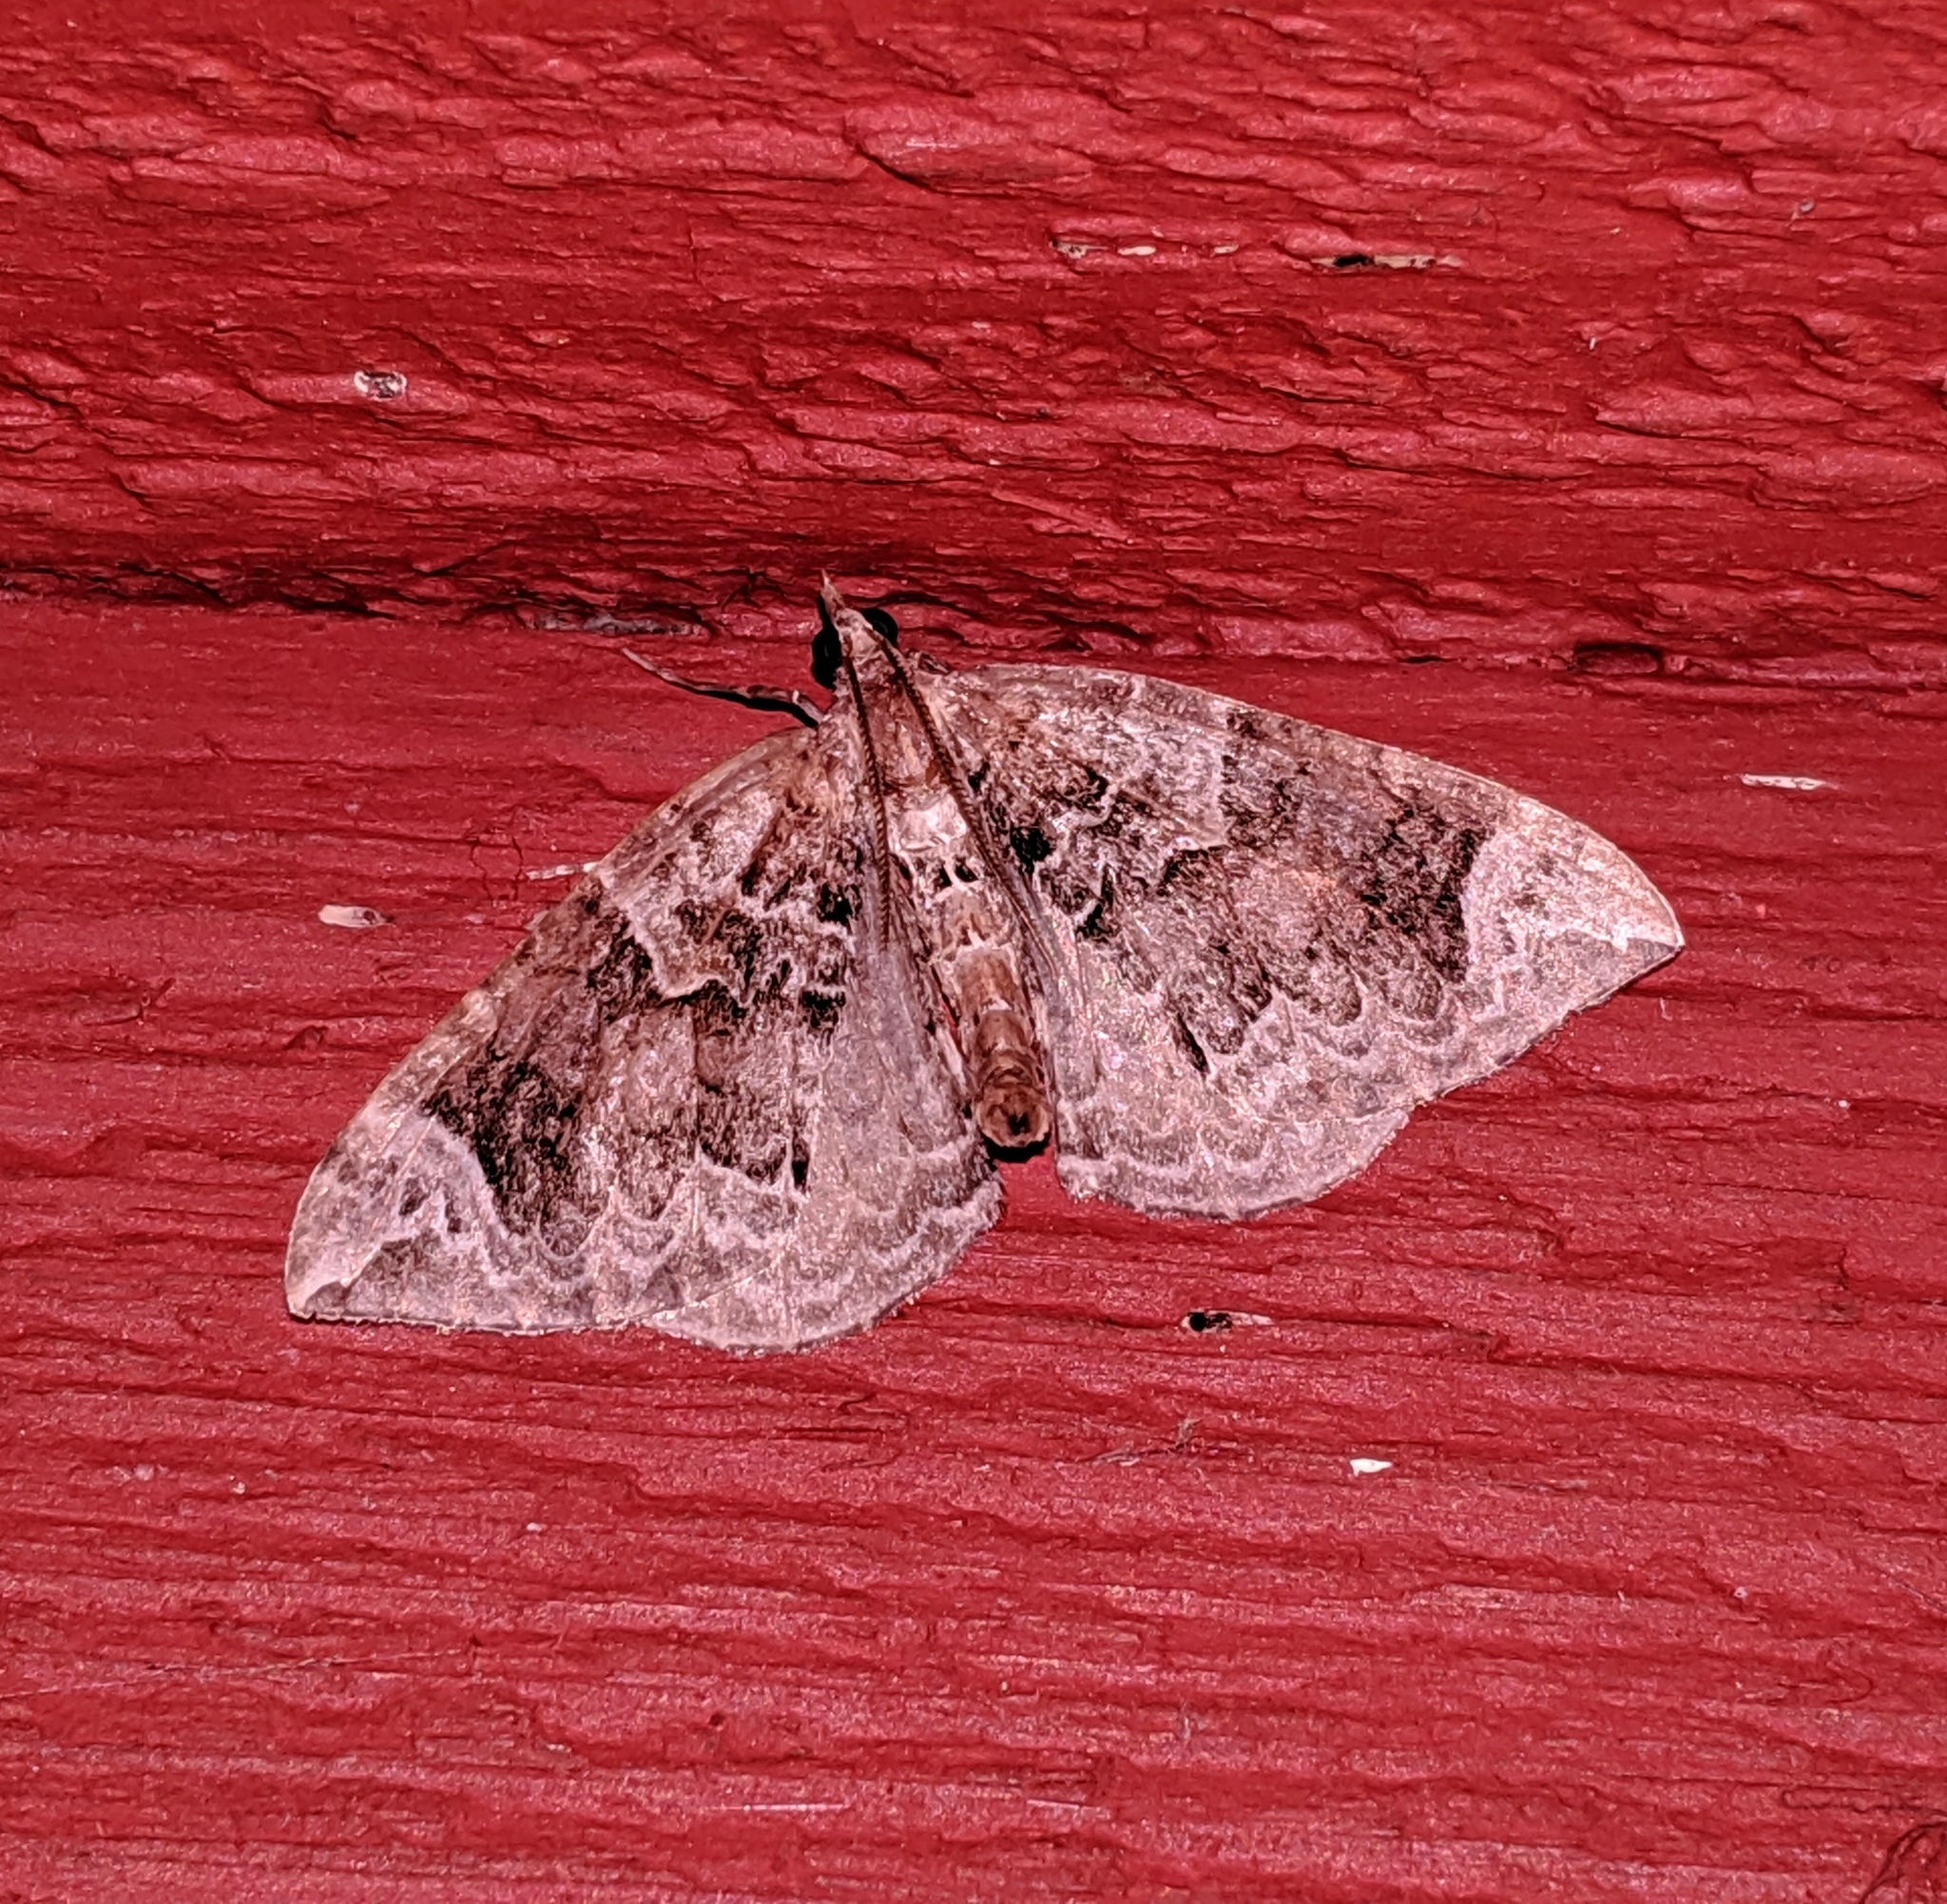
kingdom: Animalia
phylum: Arthropoda
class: Insecta
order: Lepidoptera
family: Geometridae
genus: Eulithis
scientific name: Eulithis xylina
